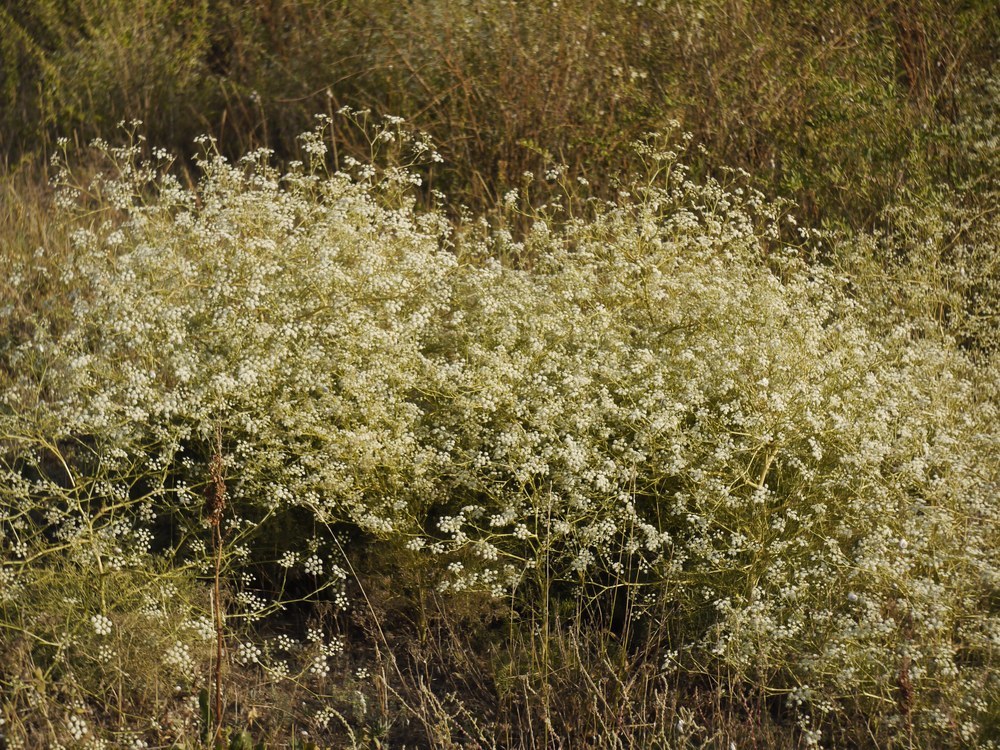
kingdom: Plantae
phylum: Tracheophyta
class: Magnoliopsida
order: Apiales
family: Apiaceae
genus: Seseli
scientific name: Seseli arenarium
